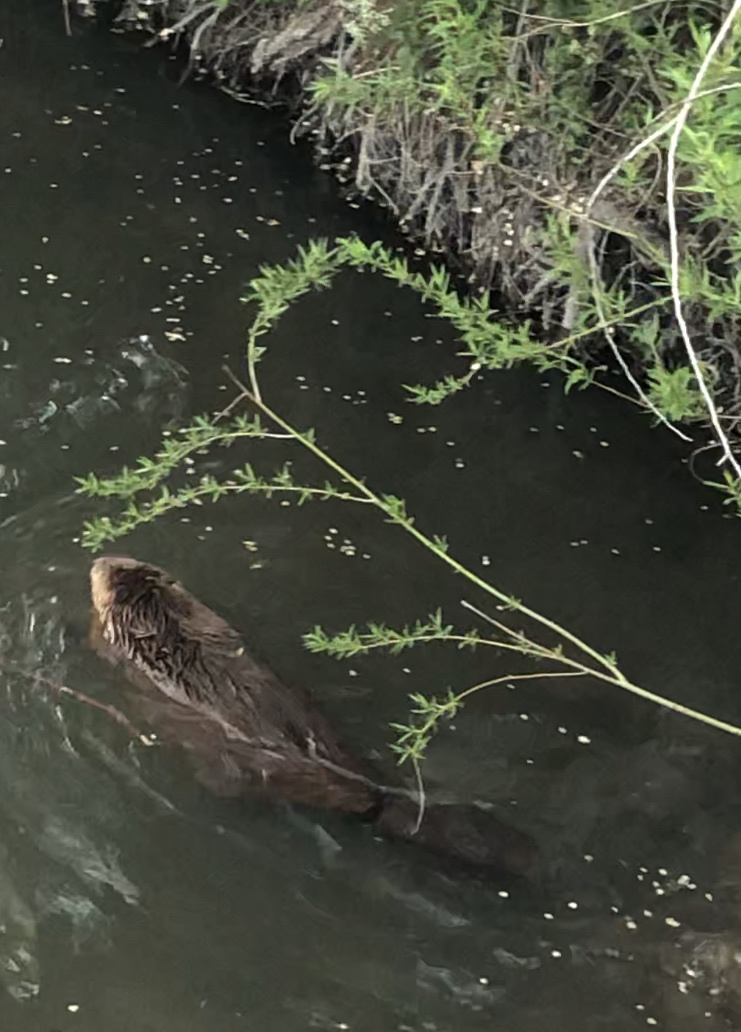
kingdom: Animalia
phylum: Chordata
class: Mammalia
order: Rodentia
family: Castoridae
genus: Castor
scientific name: Castor canadensis
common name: American beaver
